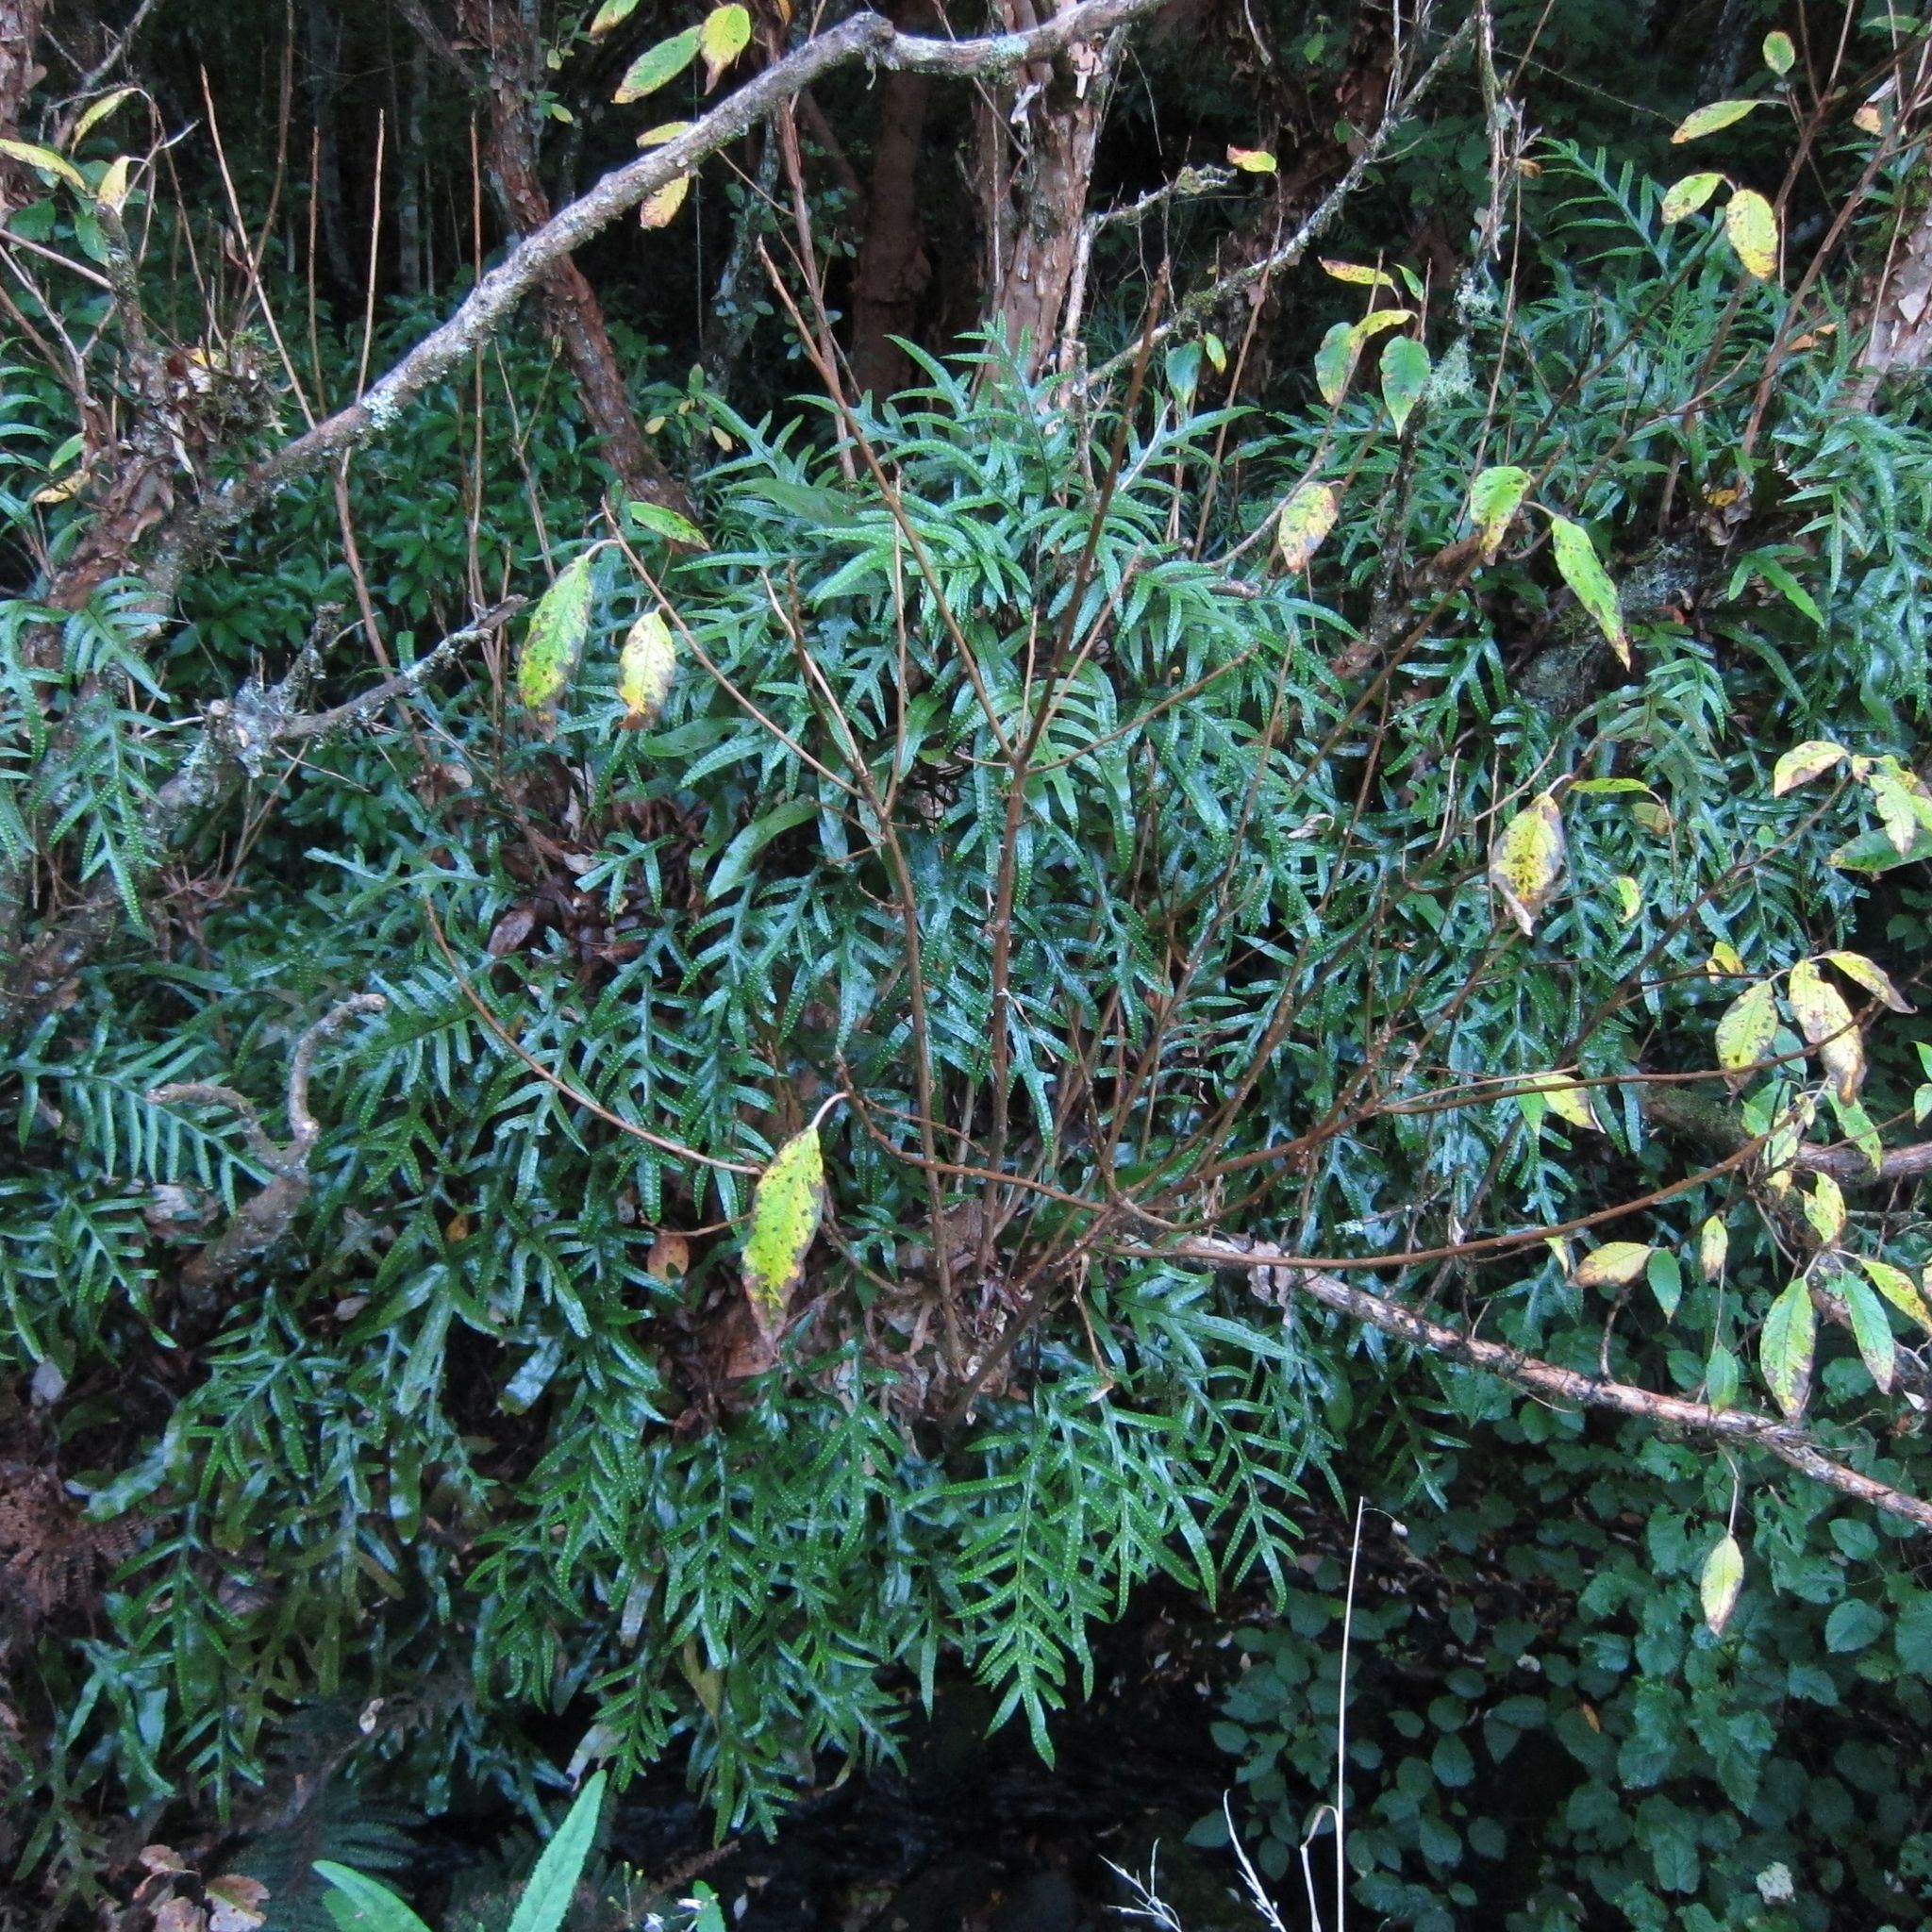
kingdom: Plantae
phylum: Tracheophyta
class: Polypodiopsida
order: Polypodiales
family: Polypodiaceae
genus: Lecanopteris
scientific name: Lecanopteris pustulata
